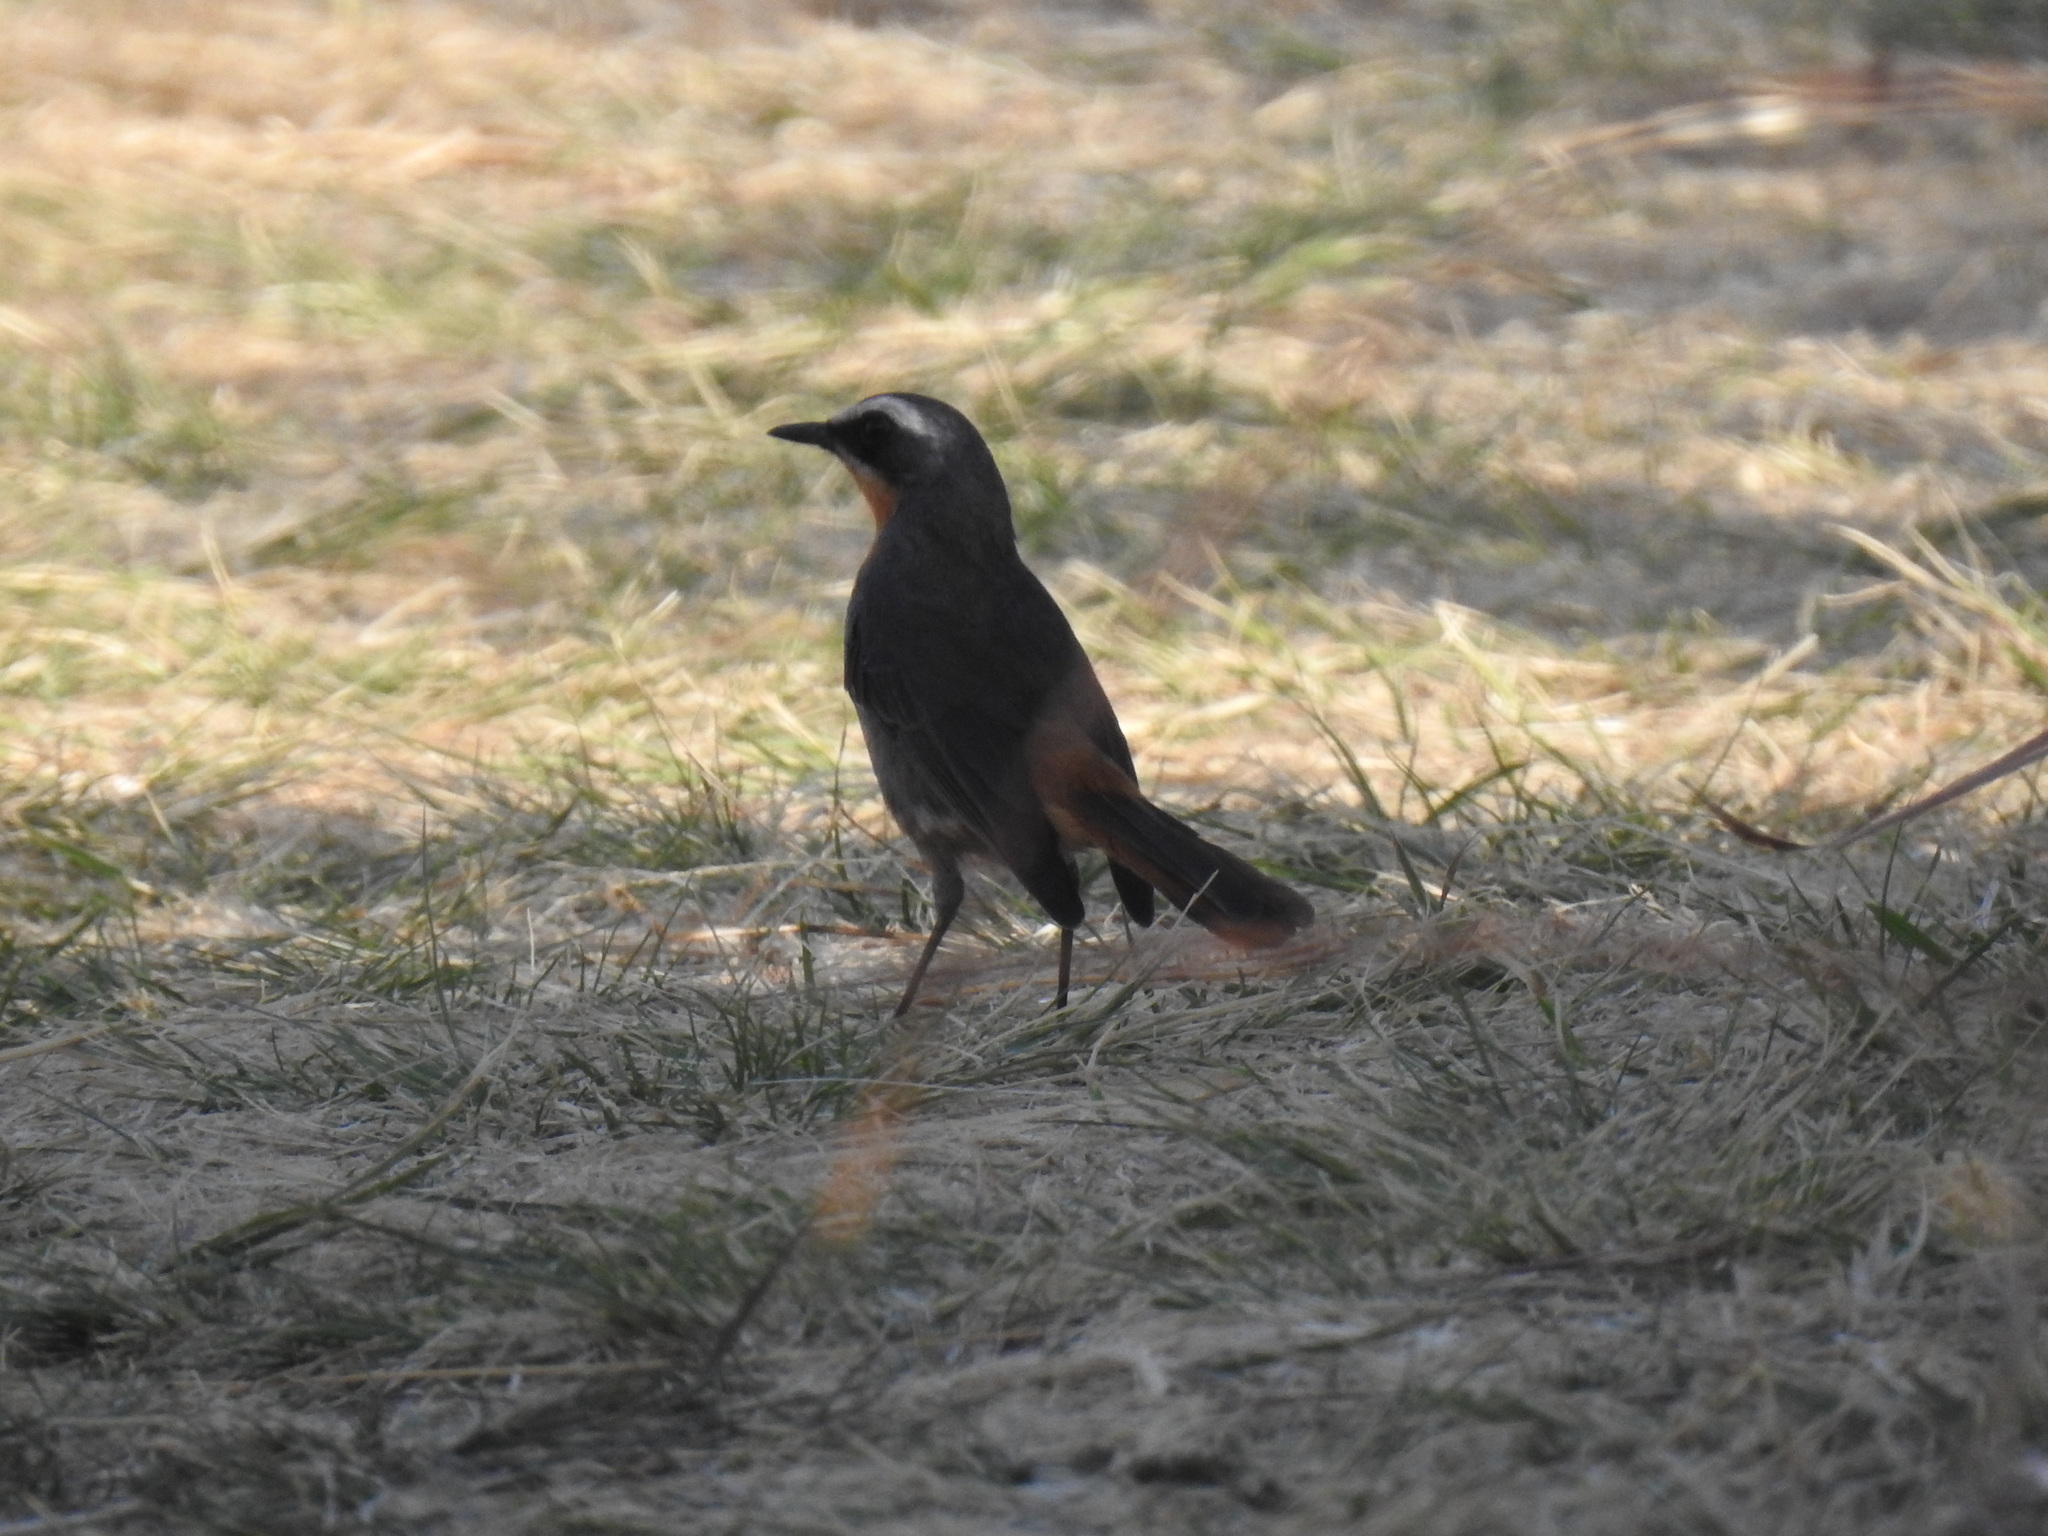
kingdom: Animalia
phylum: Chordata
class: Aves
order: Passeriformes
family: Muscicapidae
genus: Cossypha
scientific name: Cossypha caffra
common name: Cape robin-chat
